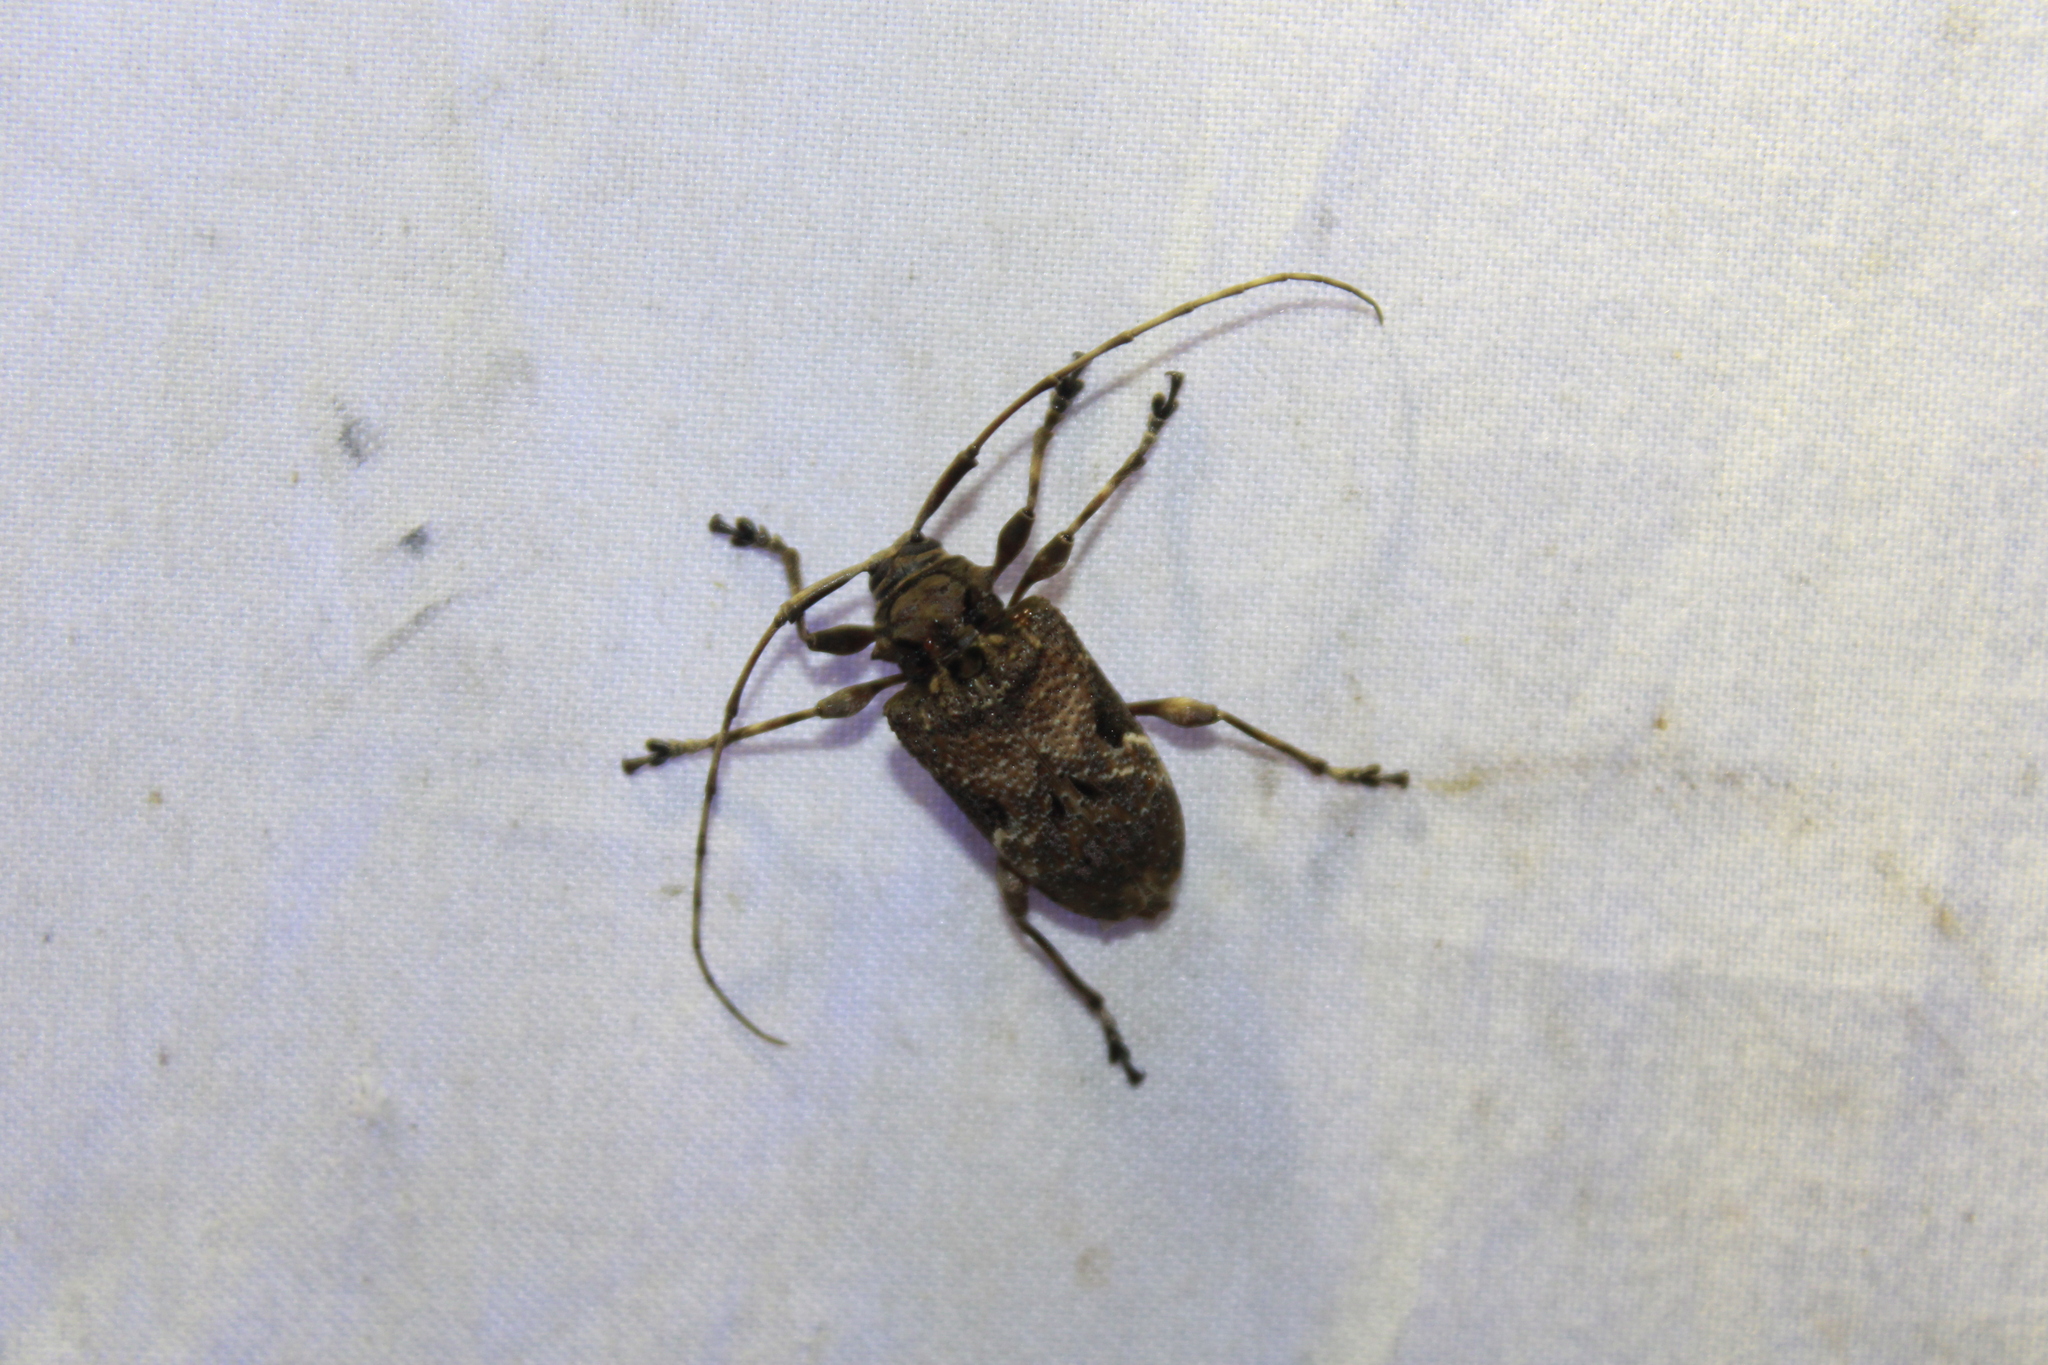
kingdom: Animalia
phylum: Arthropoda
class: Insecta
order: Coleoptera
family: Cerambycidae
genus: Lagocheirus
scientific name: Lagocheirus araneiformis
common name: Beetle
